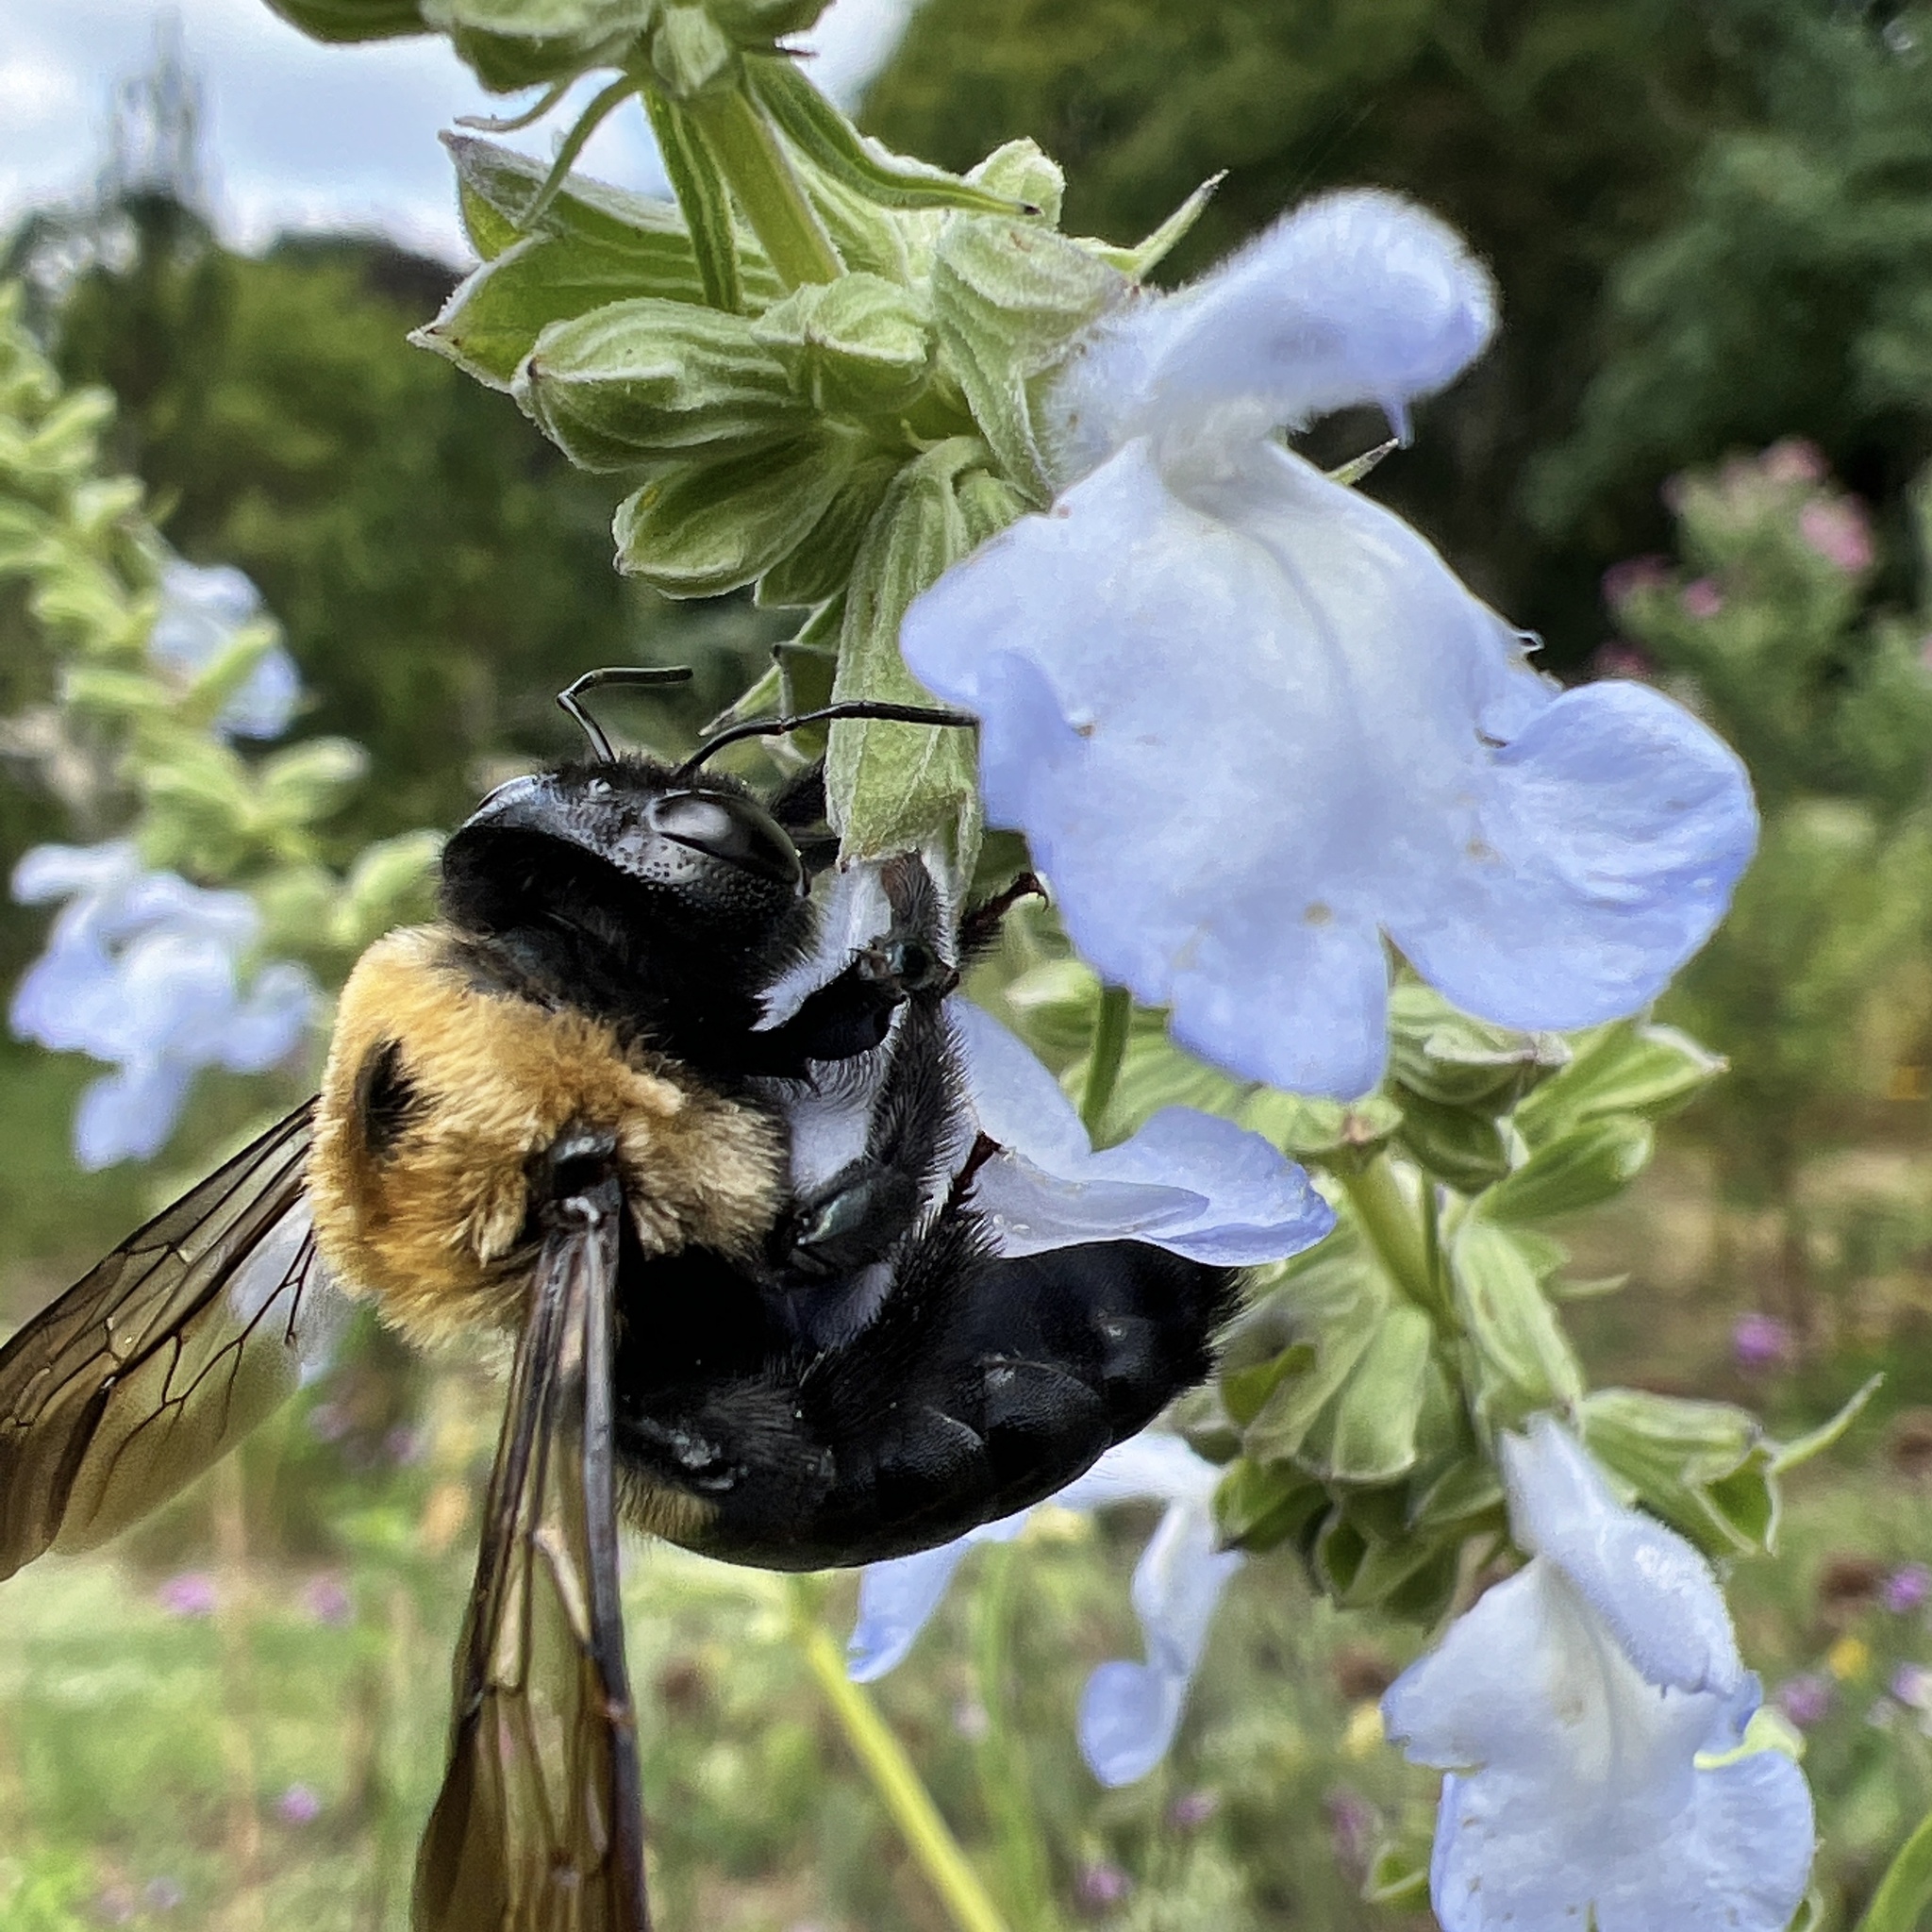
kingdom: Animalia
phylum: Arthropoda
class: Insecta
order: Hymenoptera
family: Apidae
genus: Xylocopa
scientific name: Xylocopa virginica
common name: Carpenter bee
